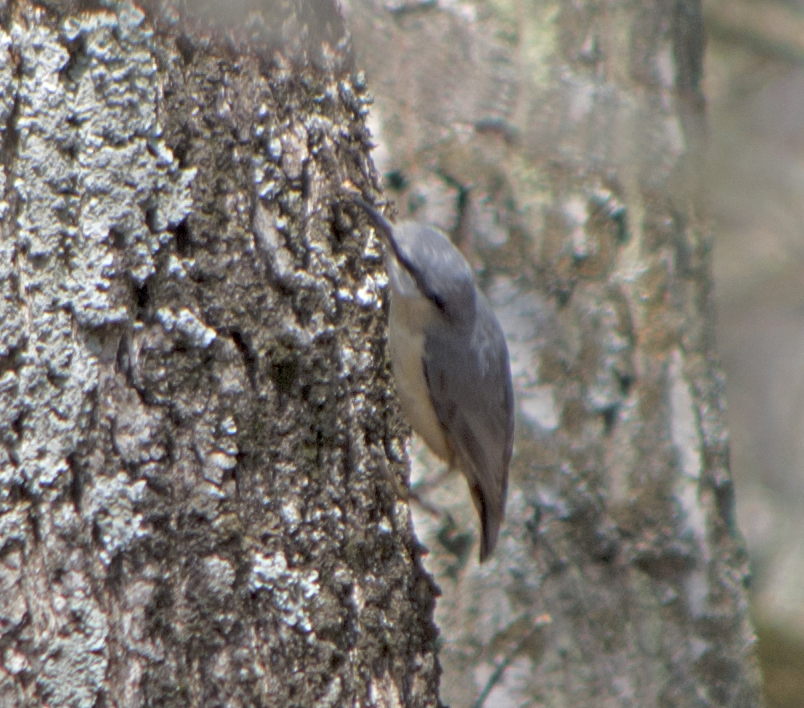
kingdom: Animalia
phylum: Chordata
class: Aves
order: Passeriformes
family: Sittidae
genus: Sitta
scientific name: Sitta europaea
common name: Eurasian nuthatch
